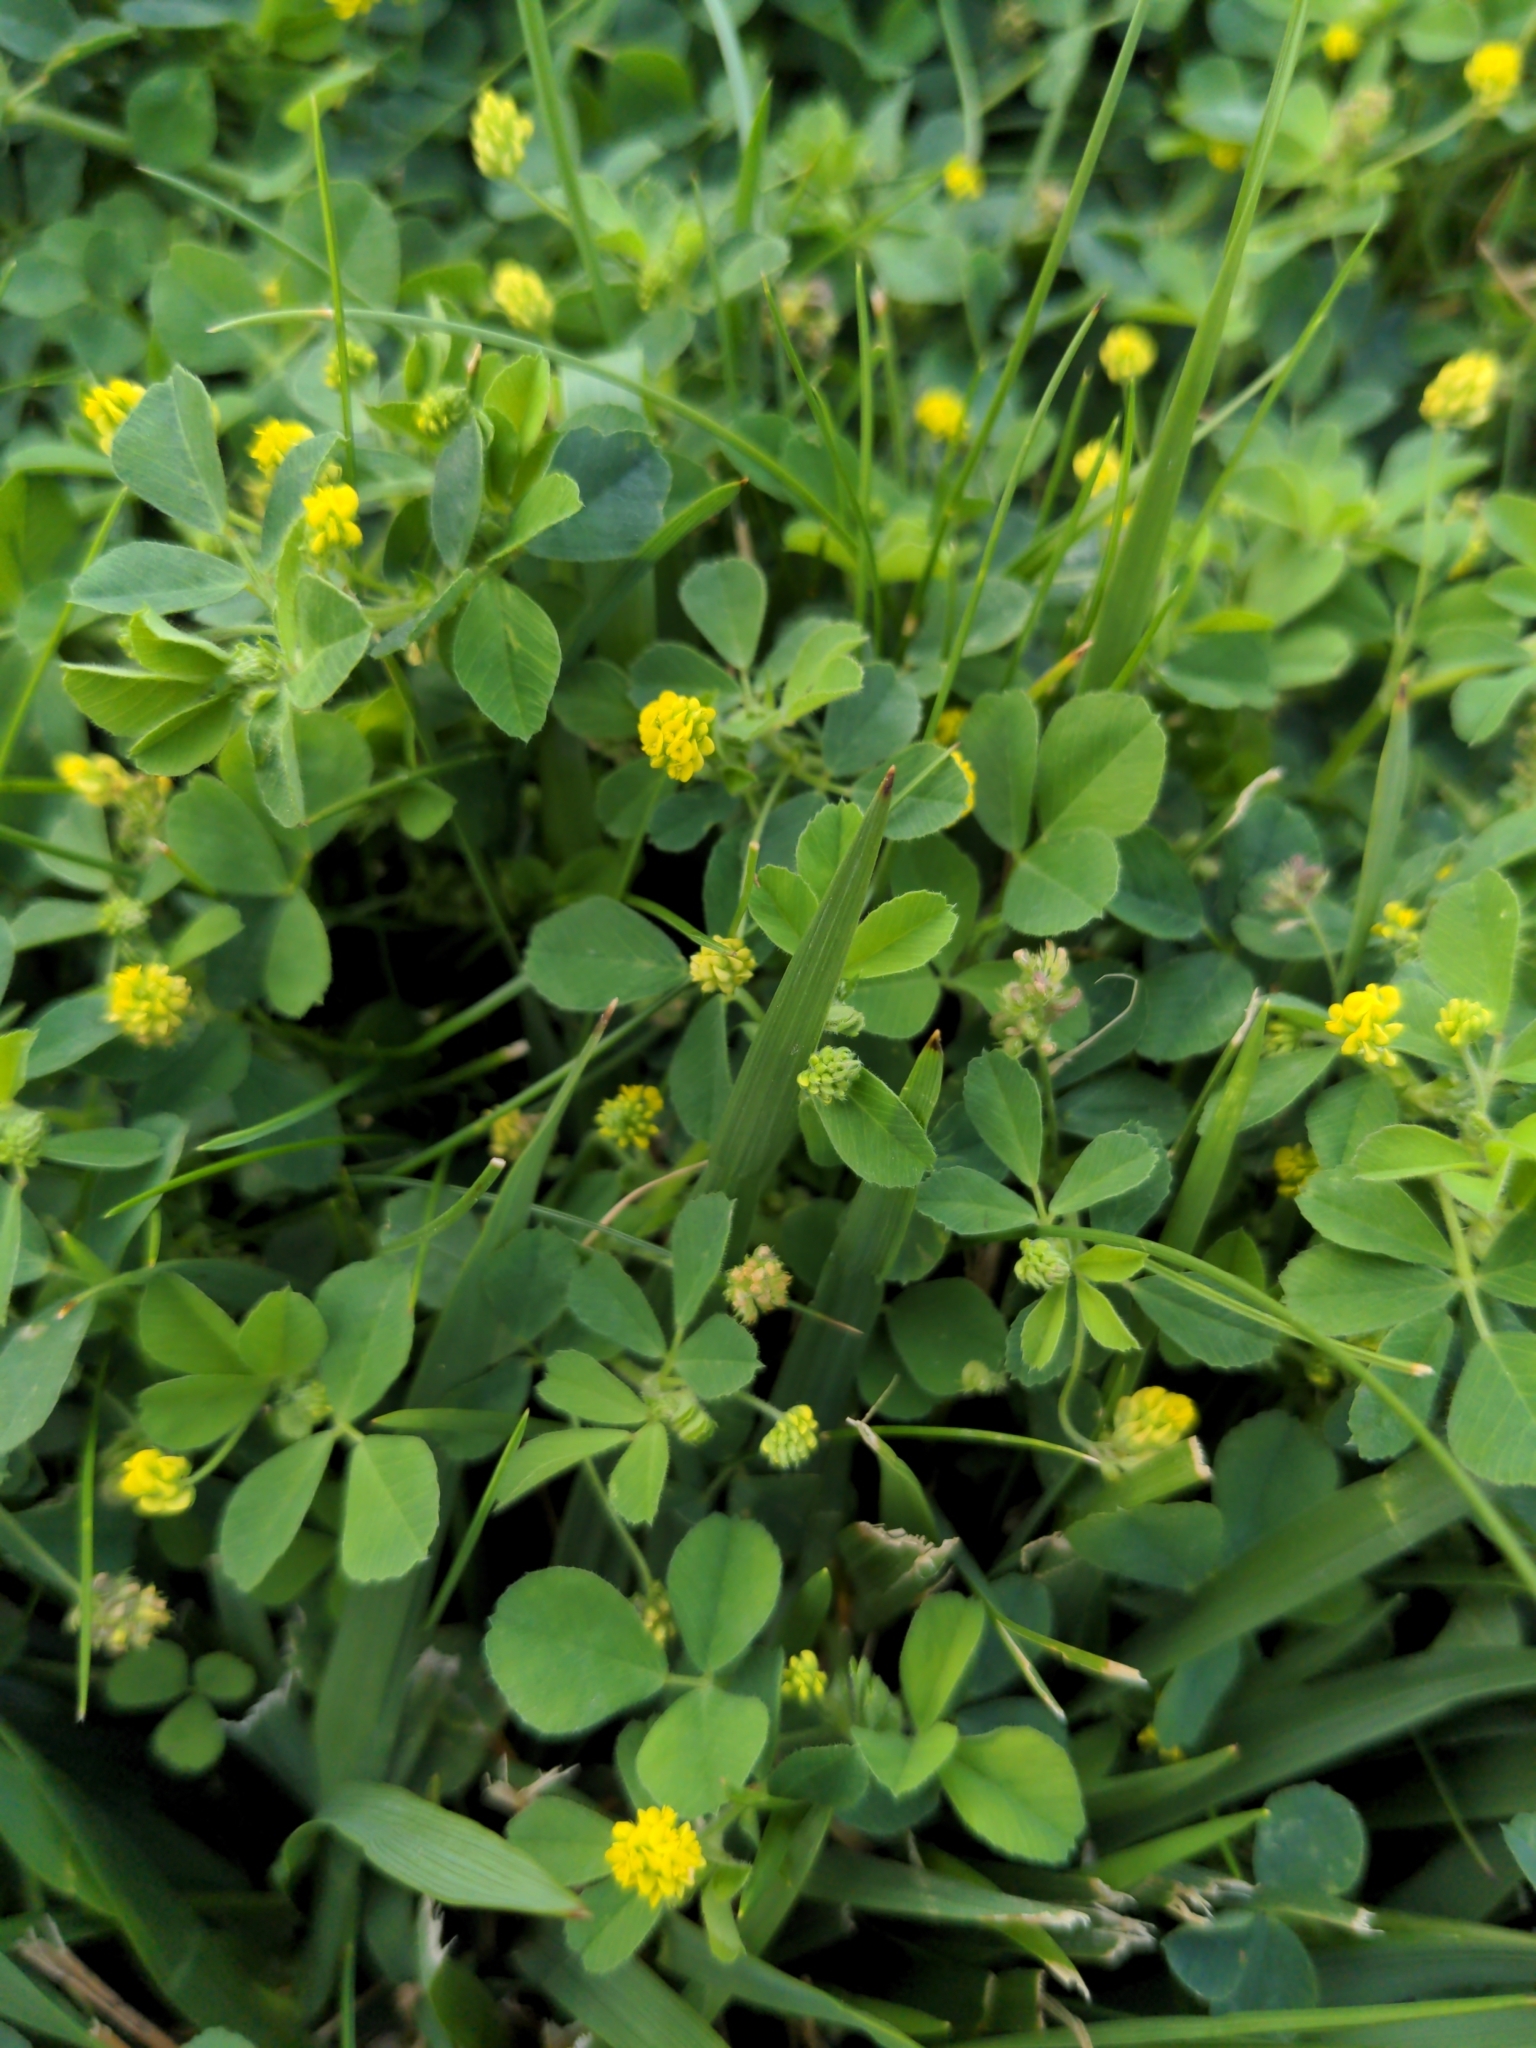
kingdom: Plantae
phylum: Tracheophyta
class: Magnoliopsida
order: Fabales
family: Fabaceae
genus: Medicago
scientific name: Medicago lupulina
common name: Black medick
